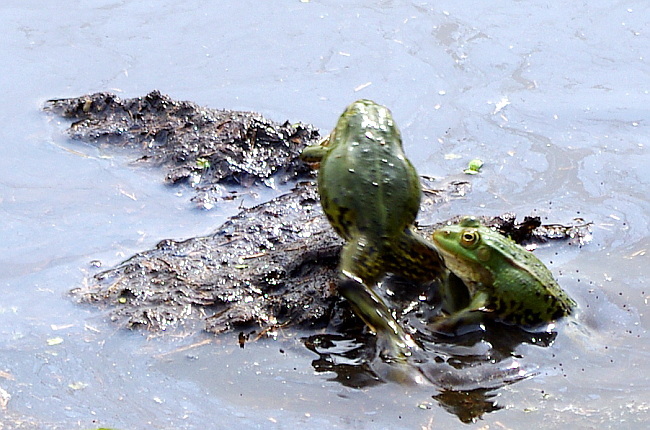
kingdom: Animalia
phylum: Chordata
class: Amphibia
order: Anura
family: Ranidae
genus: Pelophylax
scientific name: Pelophylax lessonae
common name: Pool frog
